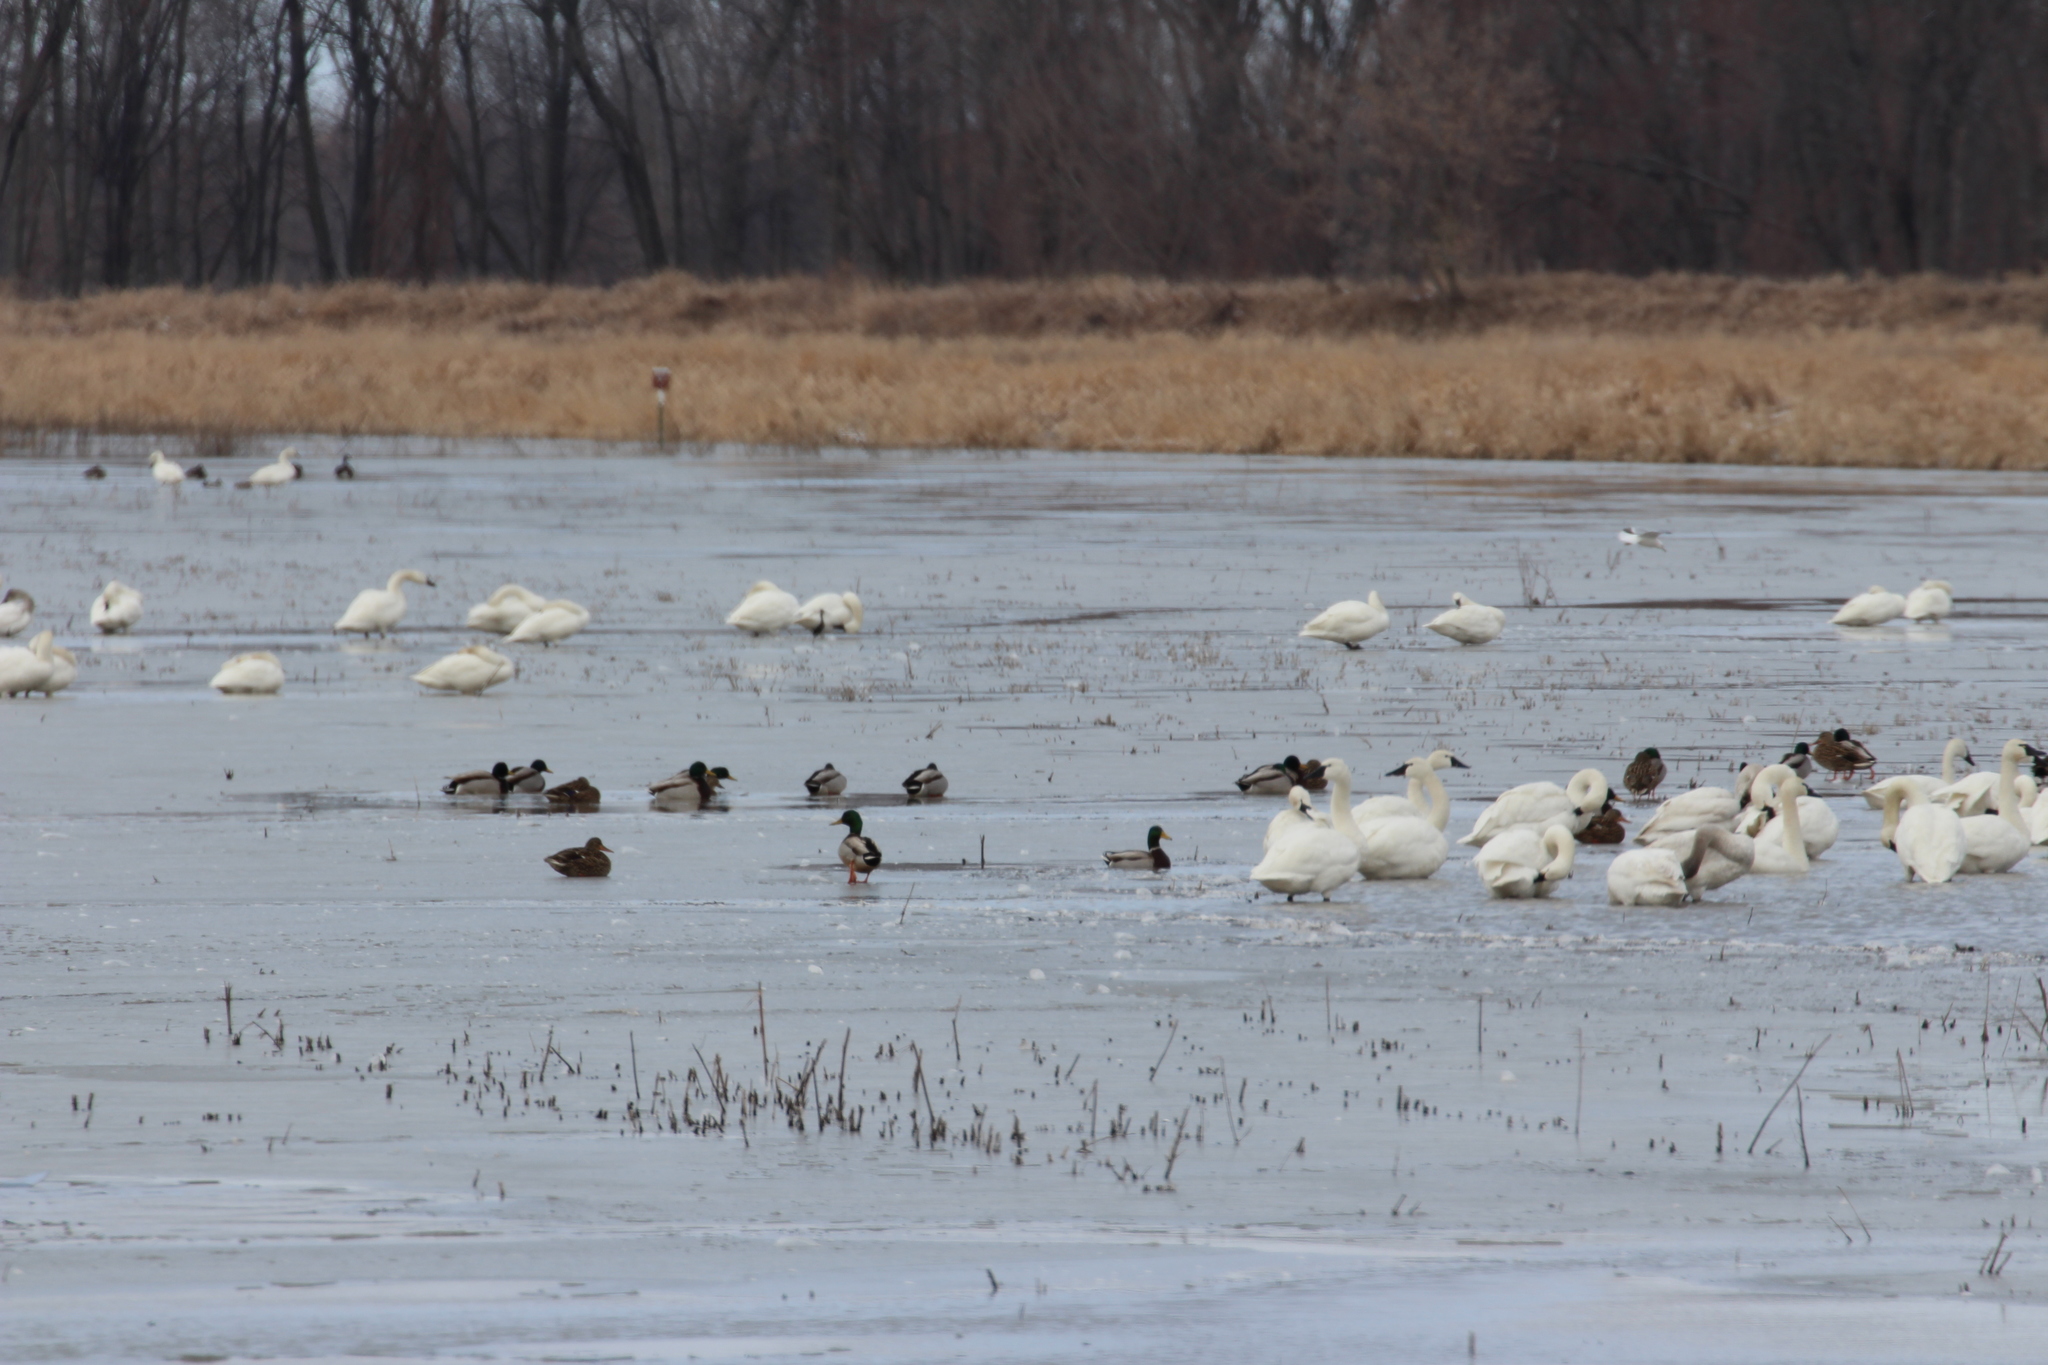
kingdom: Animalia
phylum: Chordata
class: Aves
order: Anseriformes
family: Anatidae
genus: Anas
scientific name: Anas platyrhynchos
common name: Mallard
